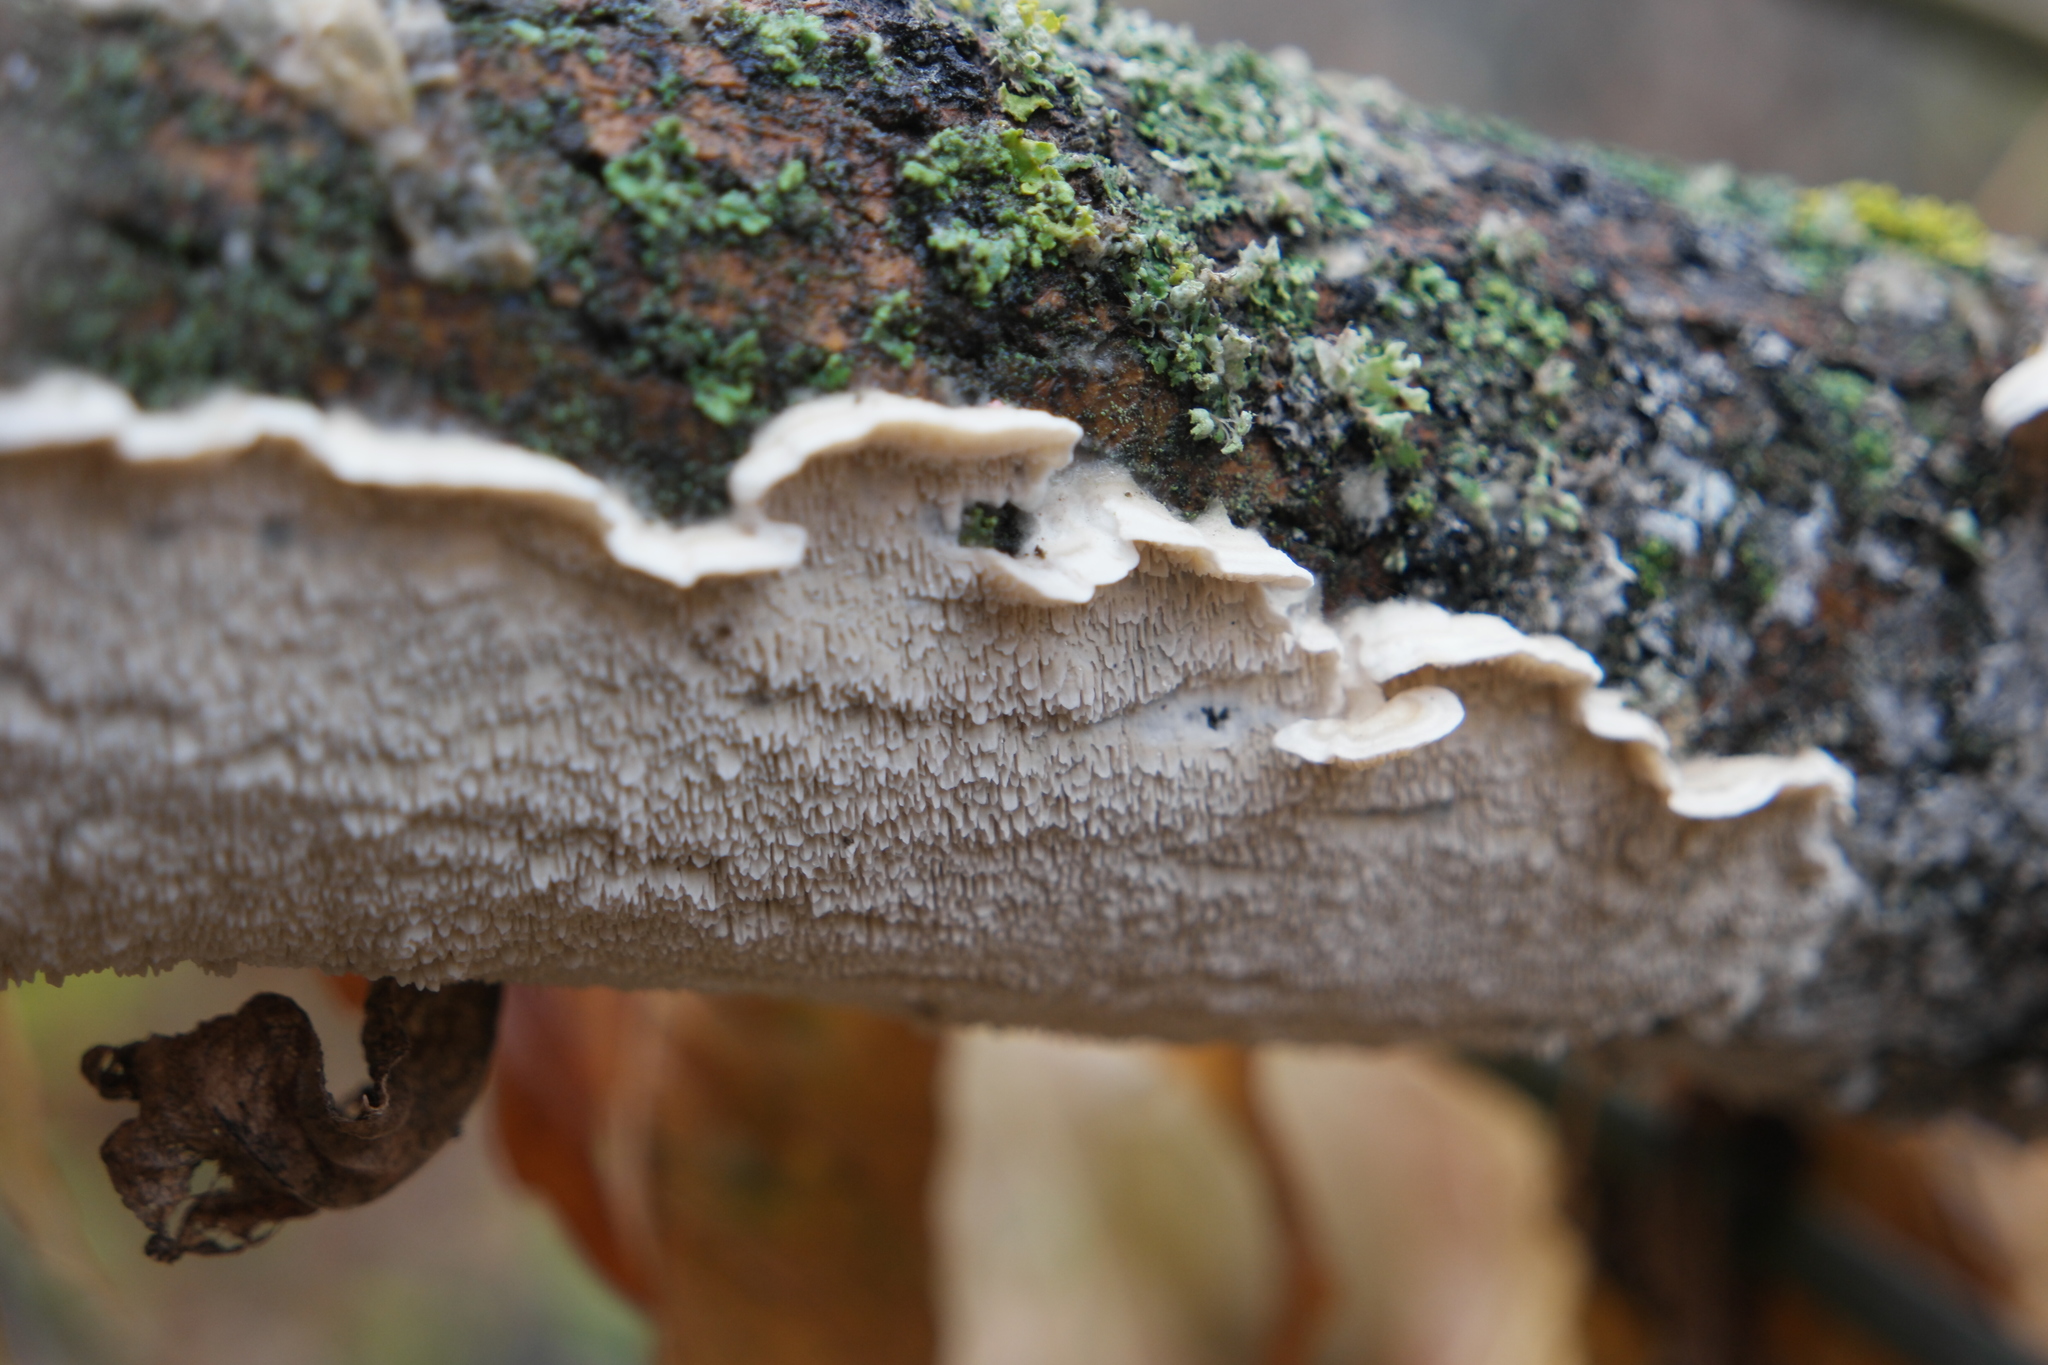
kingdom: Fungi
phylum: Basidiomycota
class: Agaricomycetes
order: Polyporales
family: Irpicaceae
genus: Irpex
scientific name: Irpex lacteus
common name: Milk-white toothed polypore
